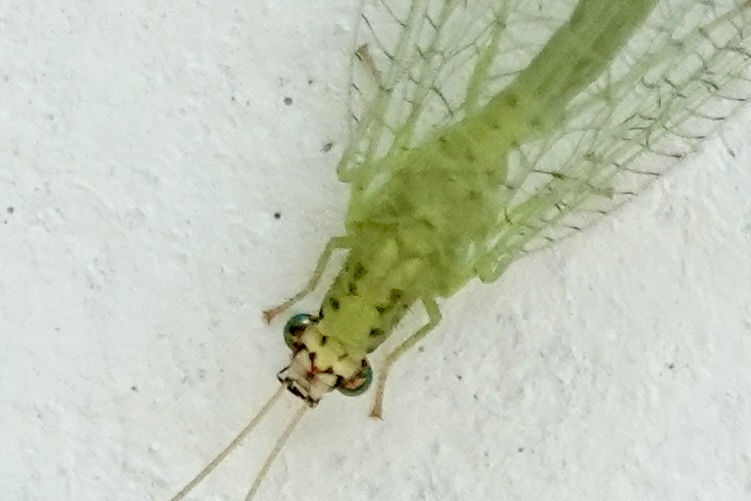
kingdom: Animalia
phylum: Arthropoda
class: Insecta
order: Neuroptera
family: Chrysopidae
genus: Chrysopa
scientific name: Chrysopa oculata
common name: Golden-eyed lacewing
